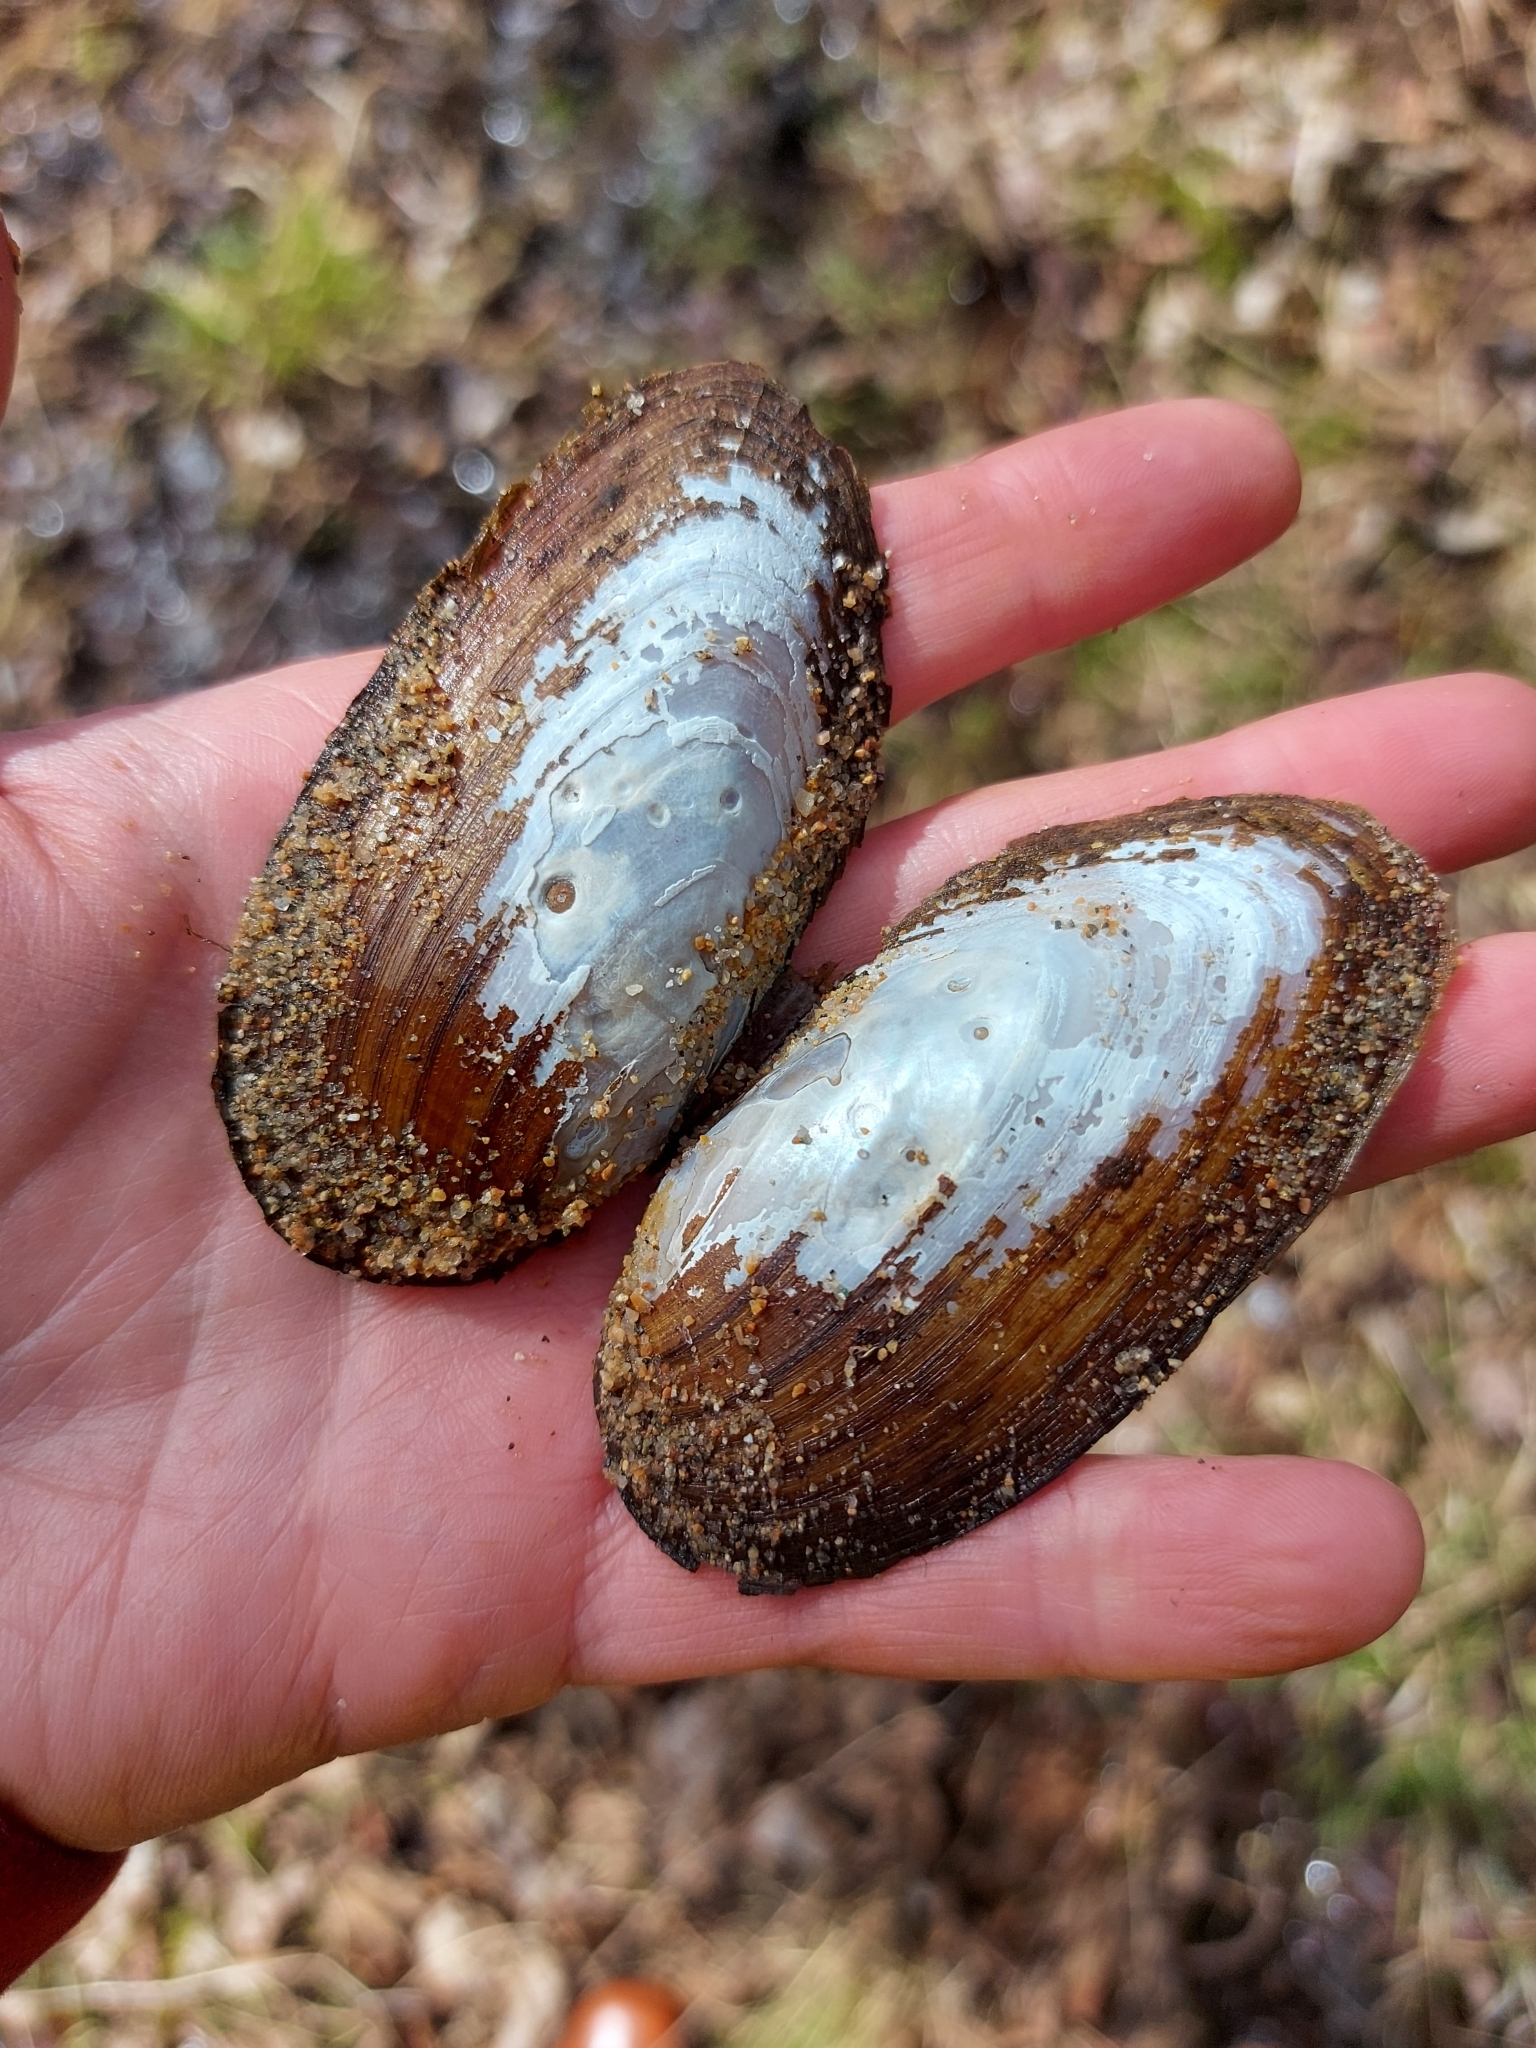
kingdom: Animalia
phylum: Mollusca
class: Bivalvia
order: Unionida
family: Unionidae
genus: Elliptio
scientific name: Elliptio complanata
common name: Eastern elliptio
